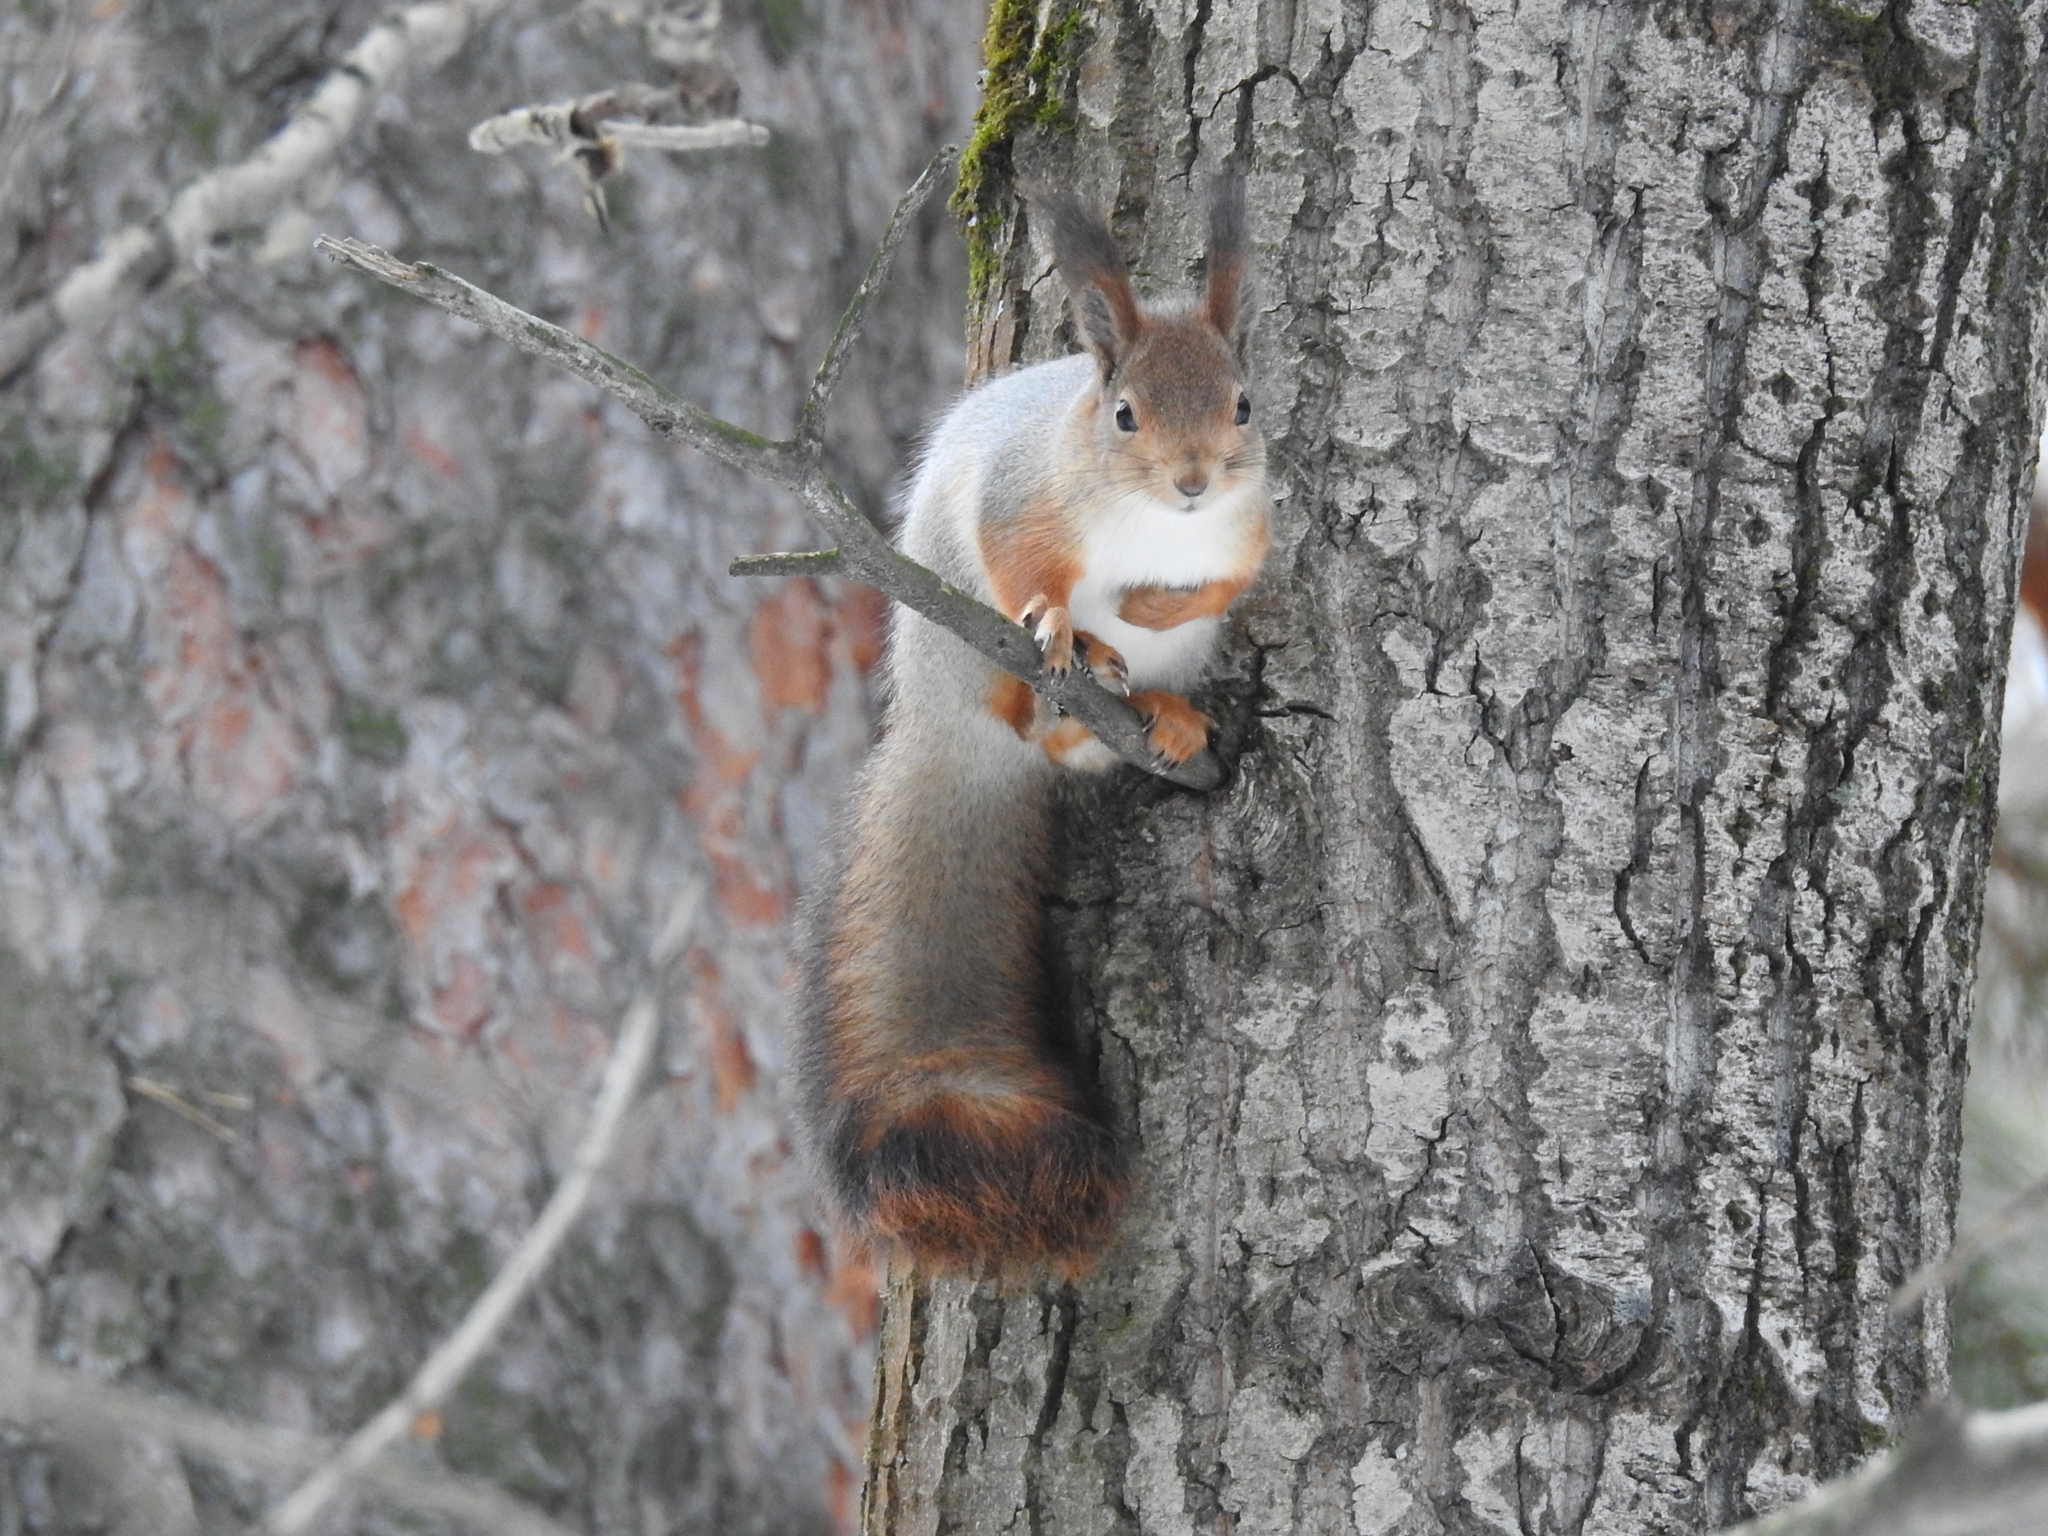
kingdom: Animalia
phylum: Chordata
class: Mammalia
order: Rodentia
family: Sciuridae
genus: Sciurus
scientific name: Sciurus vulgaris
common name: Eurasian red squirrel
